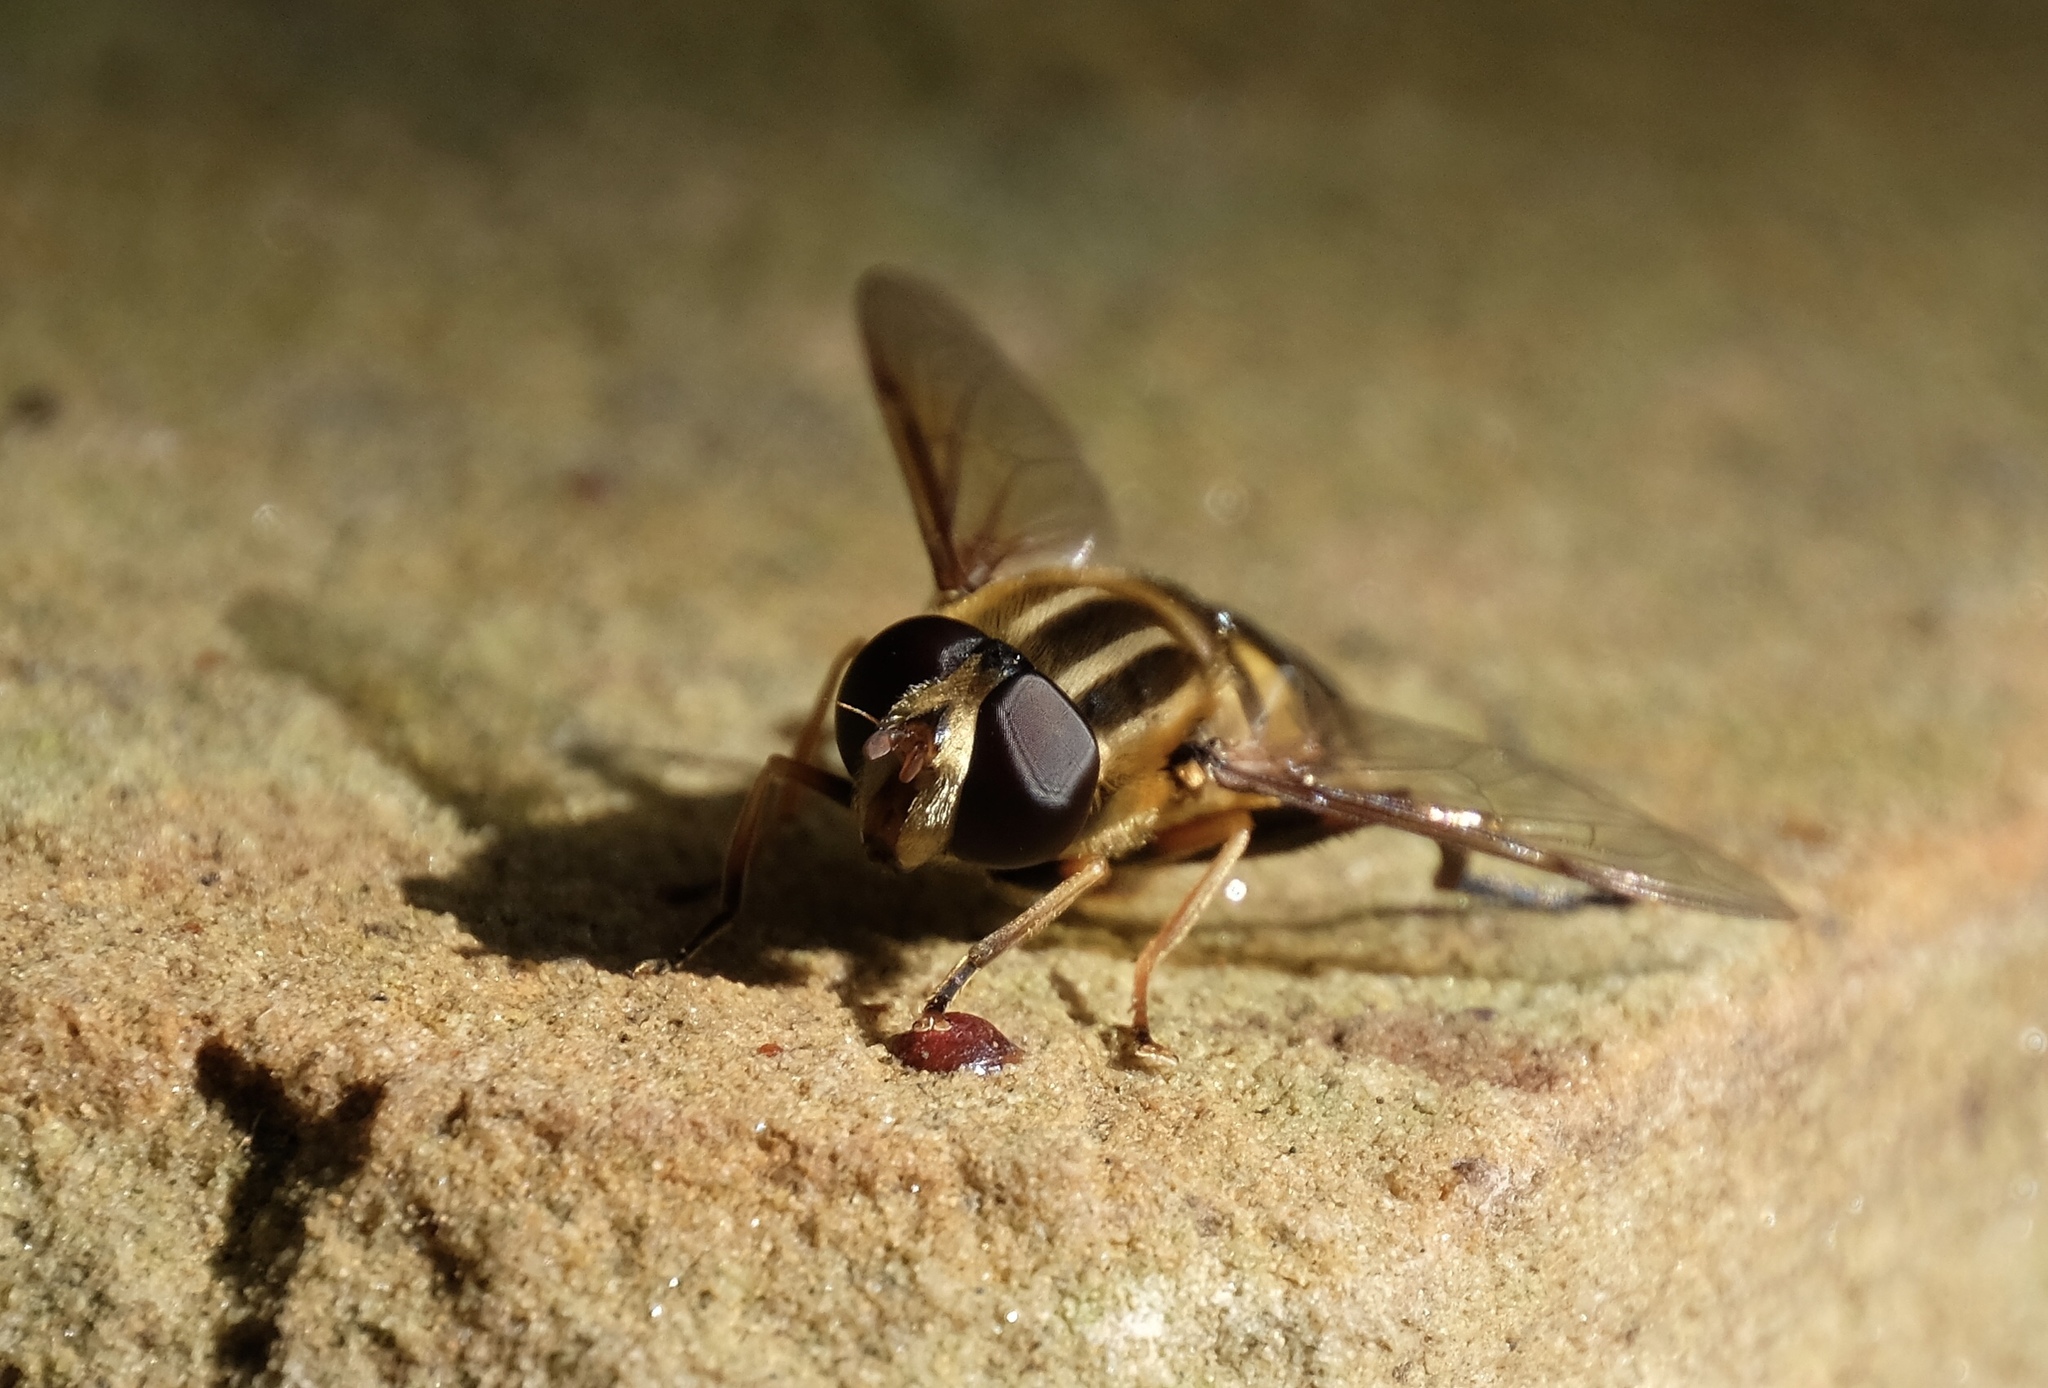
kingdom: Animalia
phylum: Arthropoda
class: Insecta
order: Diptera
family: Syrphidae
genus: Helophilus
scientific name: Helophilus fasciatus
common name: Narrow-headed marsh fly
